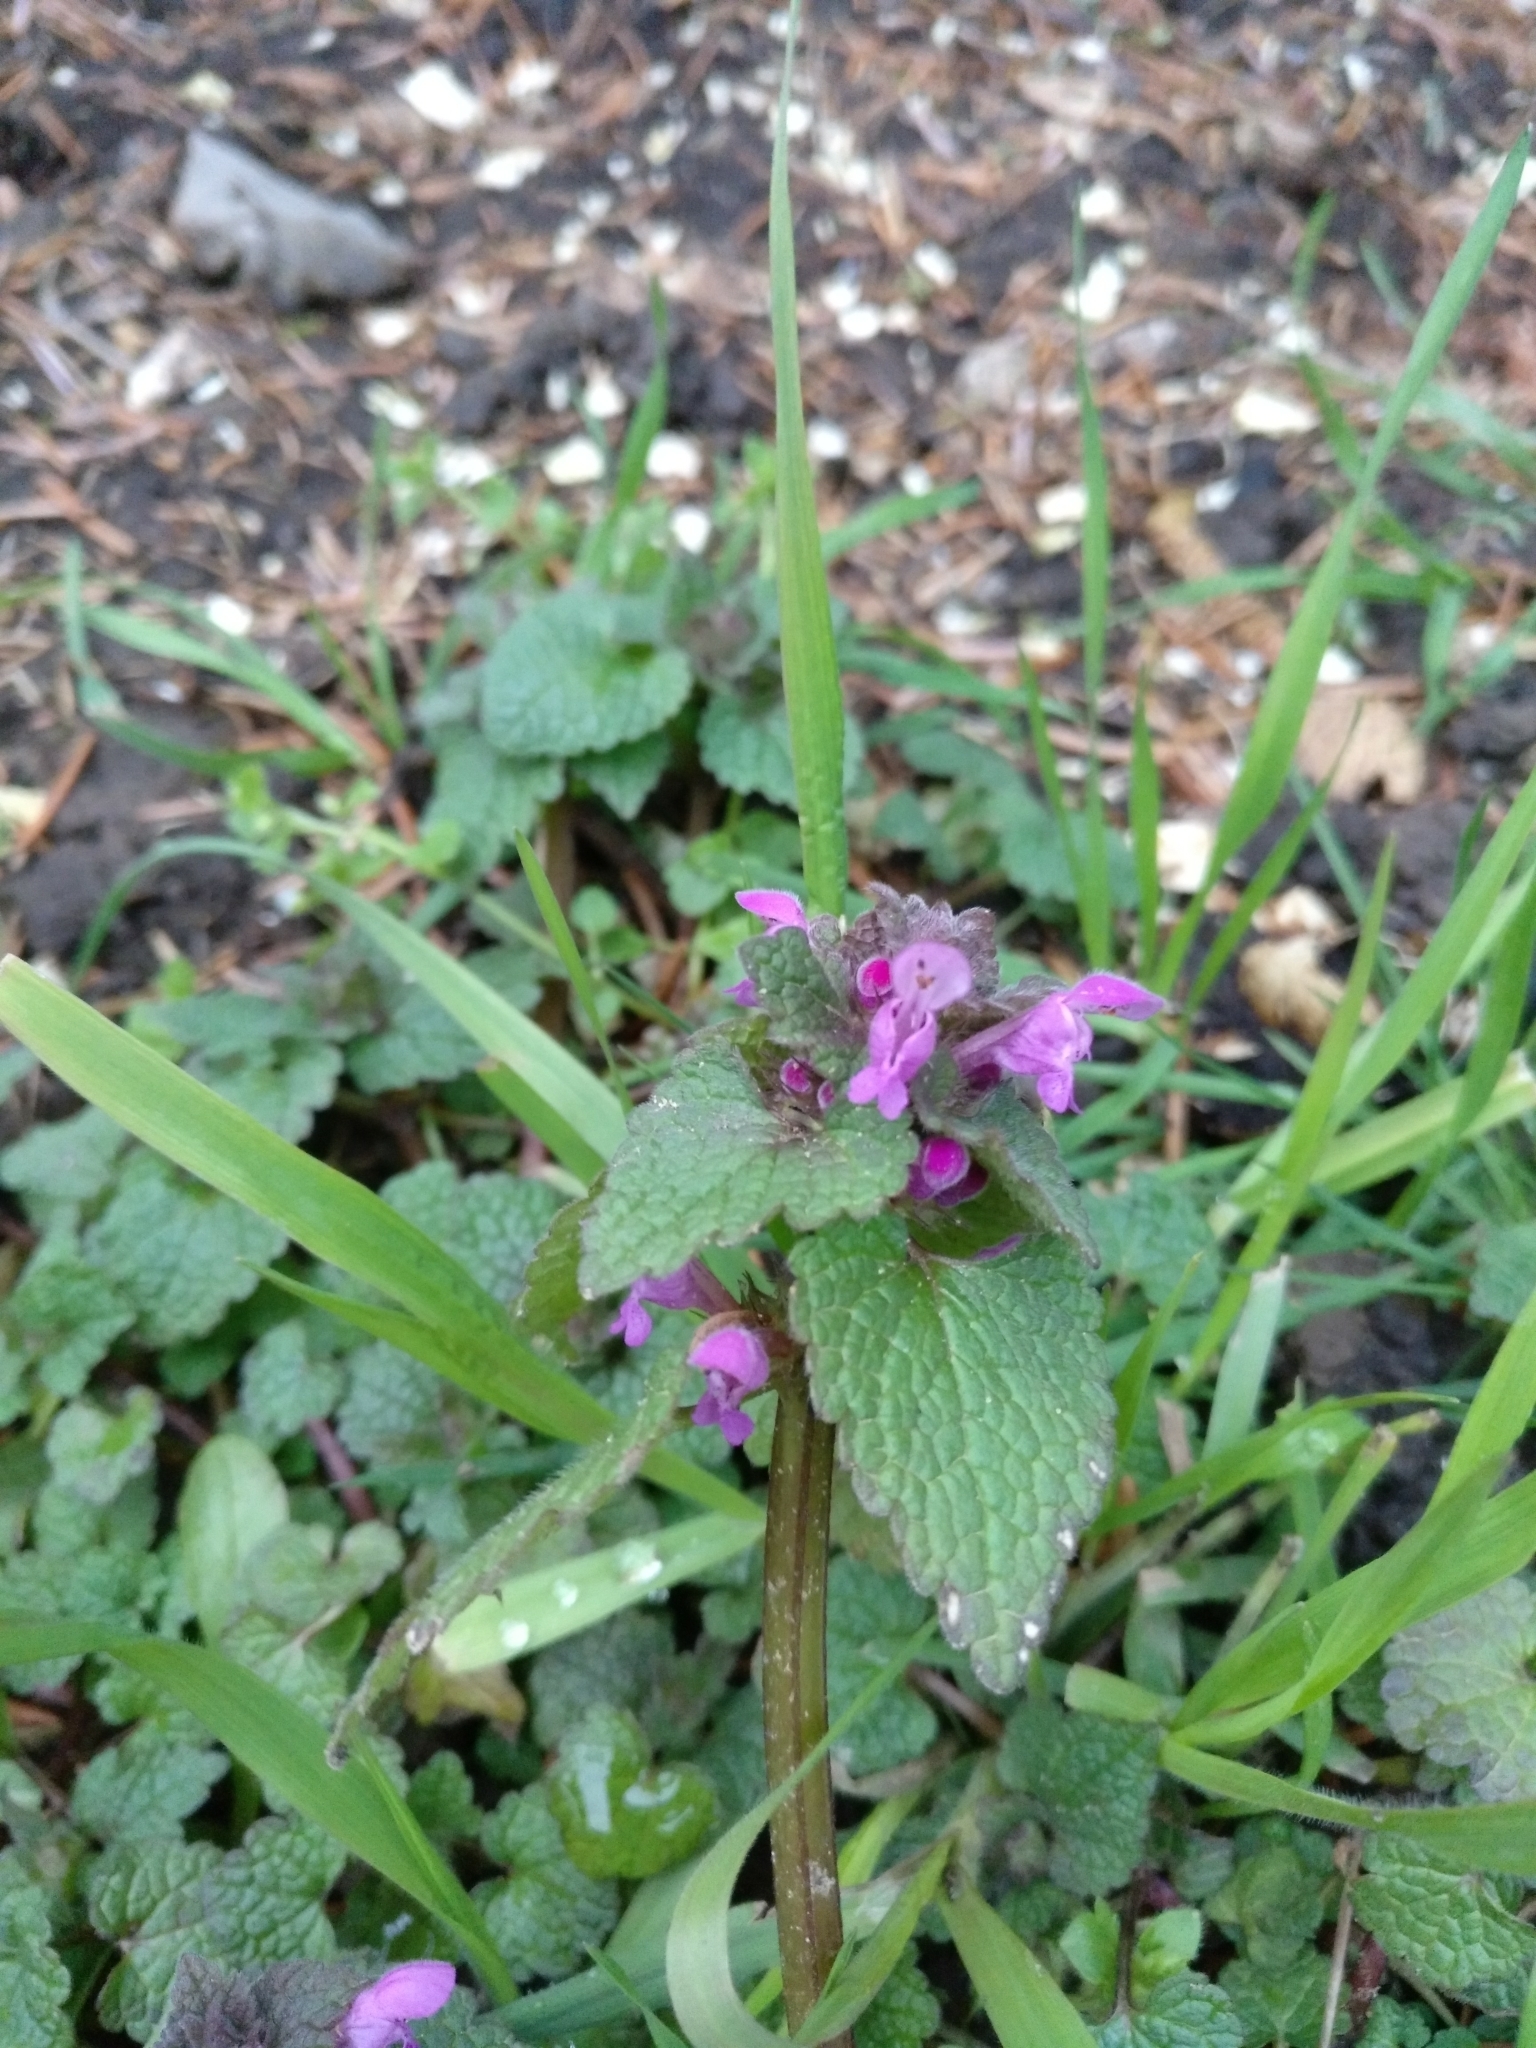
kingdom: Plantae
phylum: Tracheophyta
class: Magnoliopsida
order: Lamiales
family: Lamiaceae
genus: Lamium
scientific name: Lamium purpureum
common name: Red dead-nettle
